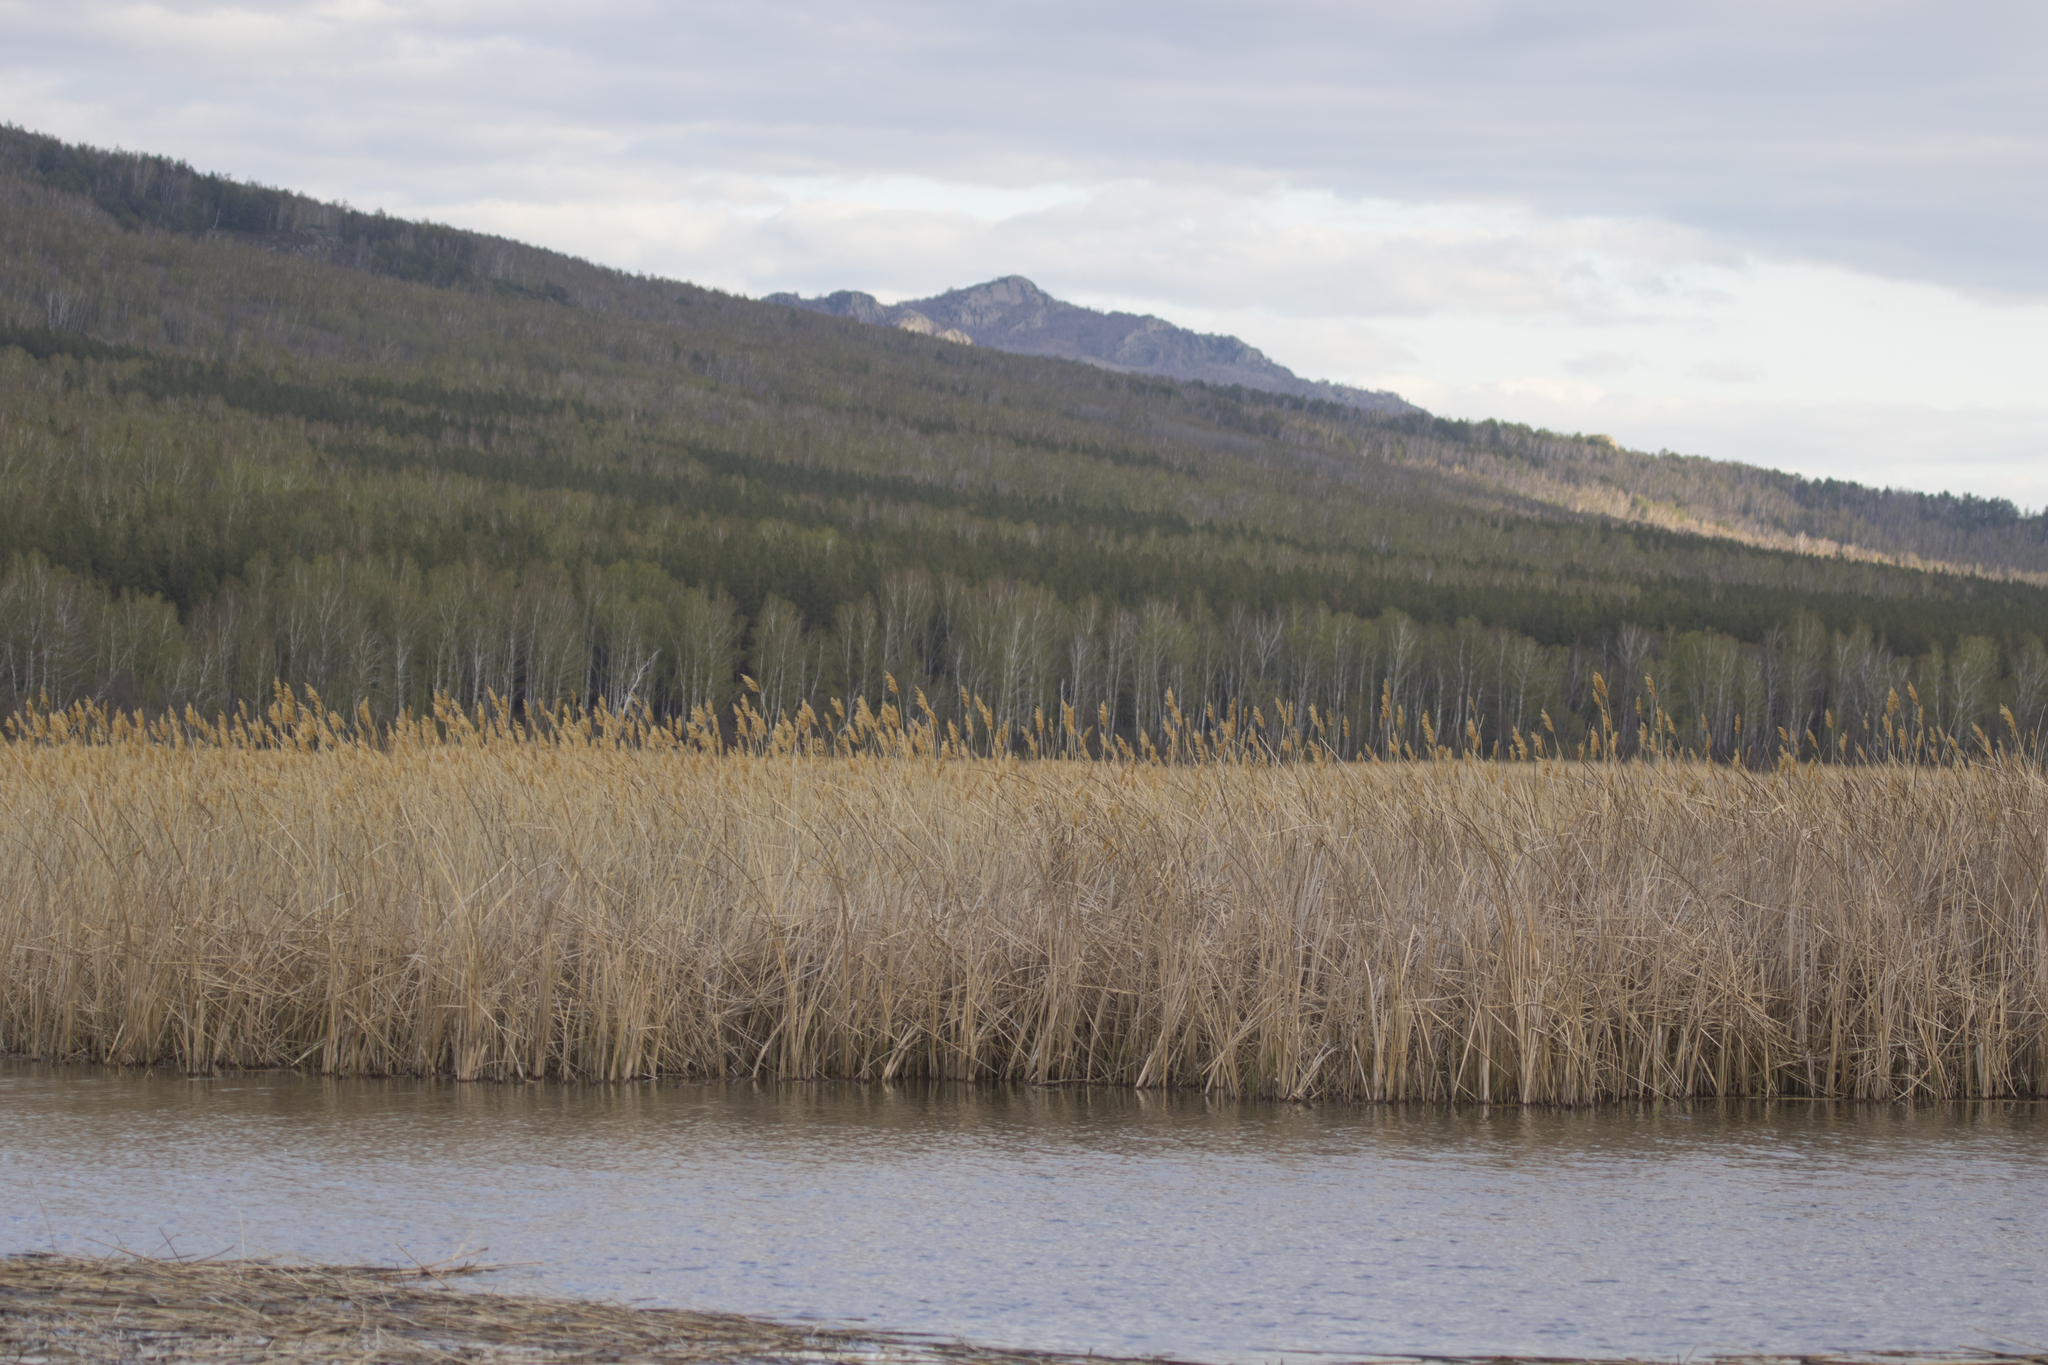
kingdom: Plantae
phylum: Tracheophyta
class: Liliopsida
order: Poales
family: Poaceae
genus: Phragmites
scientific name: Phragmites australis
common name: Common reed
